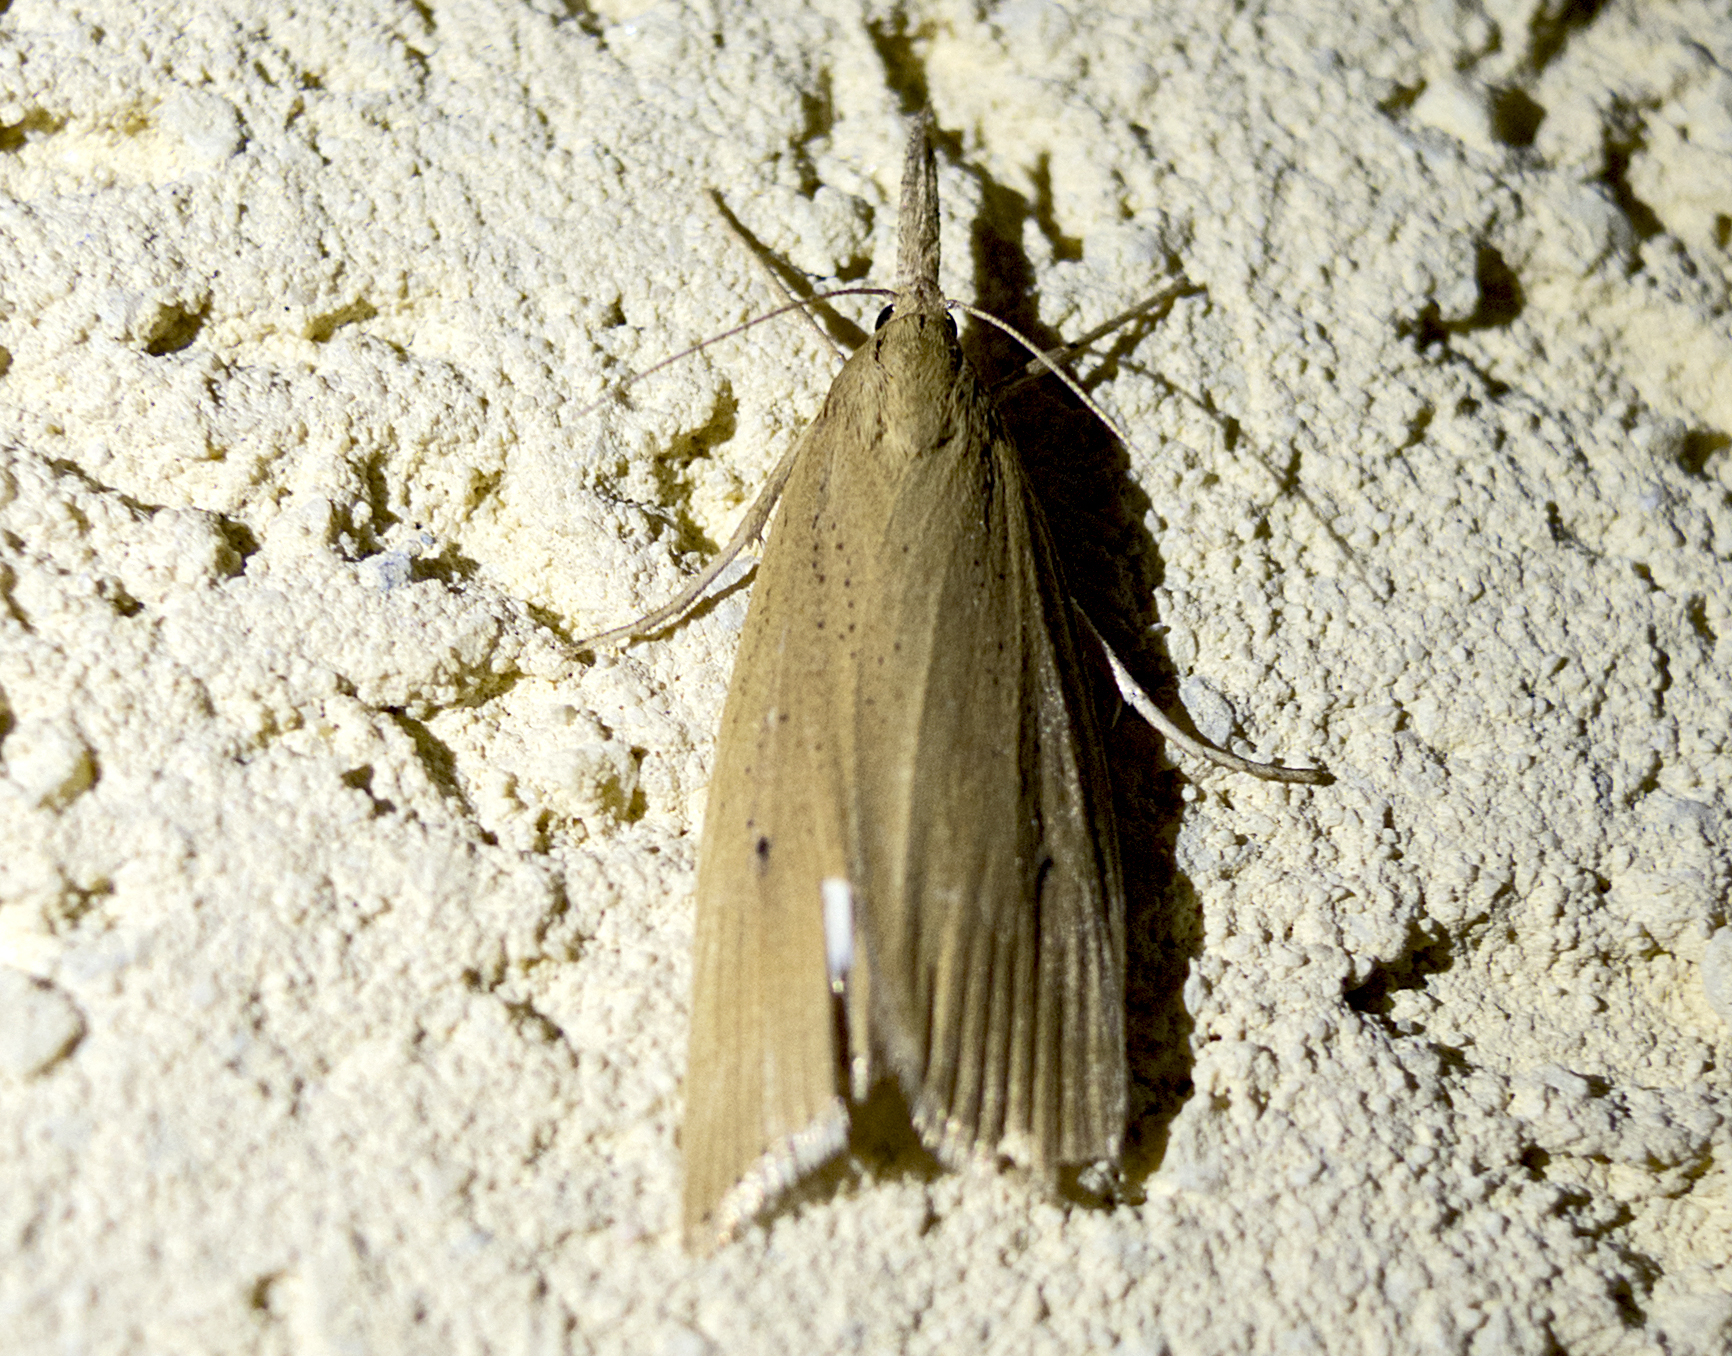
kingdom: Animalia
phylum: Arthropoda
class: Insecta
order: Lepidoptera
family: Crambidae
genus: Chilo
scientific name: Chilo phragmitella
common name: Reed veneer
